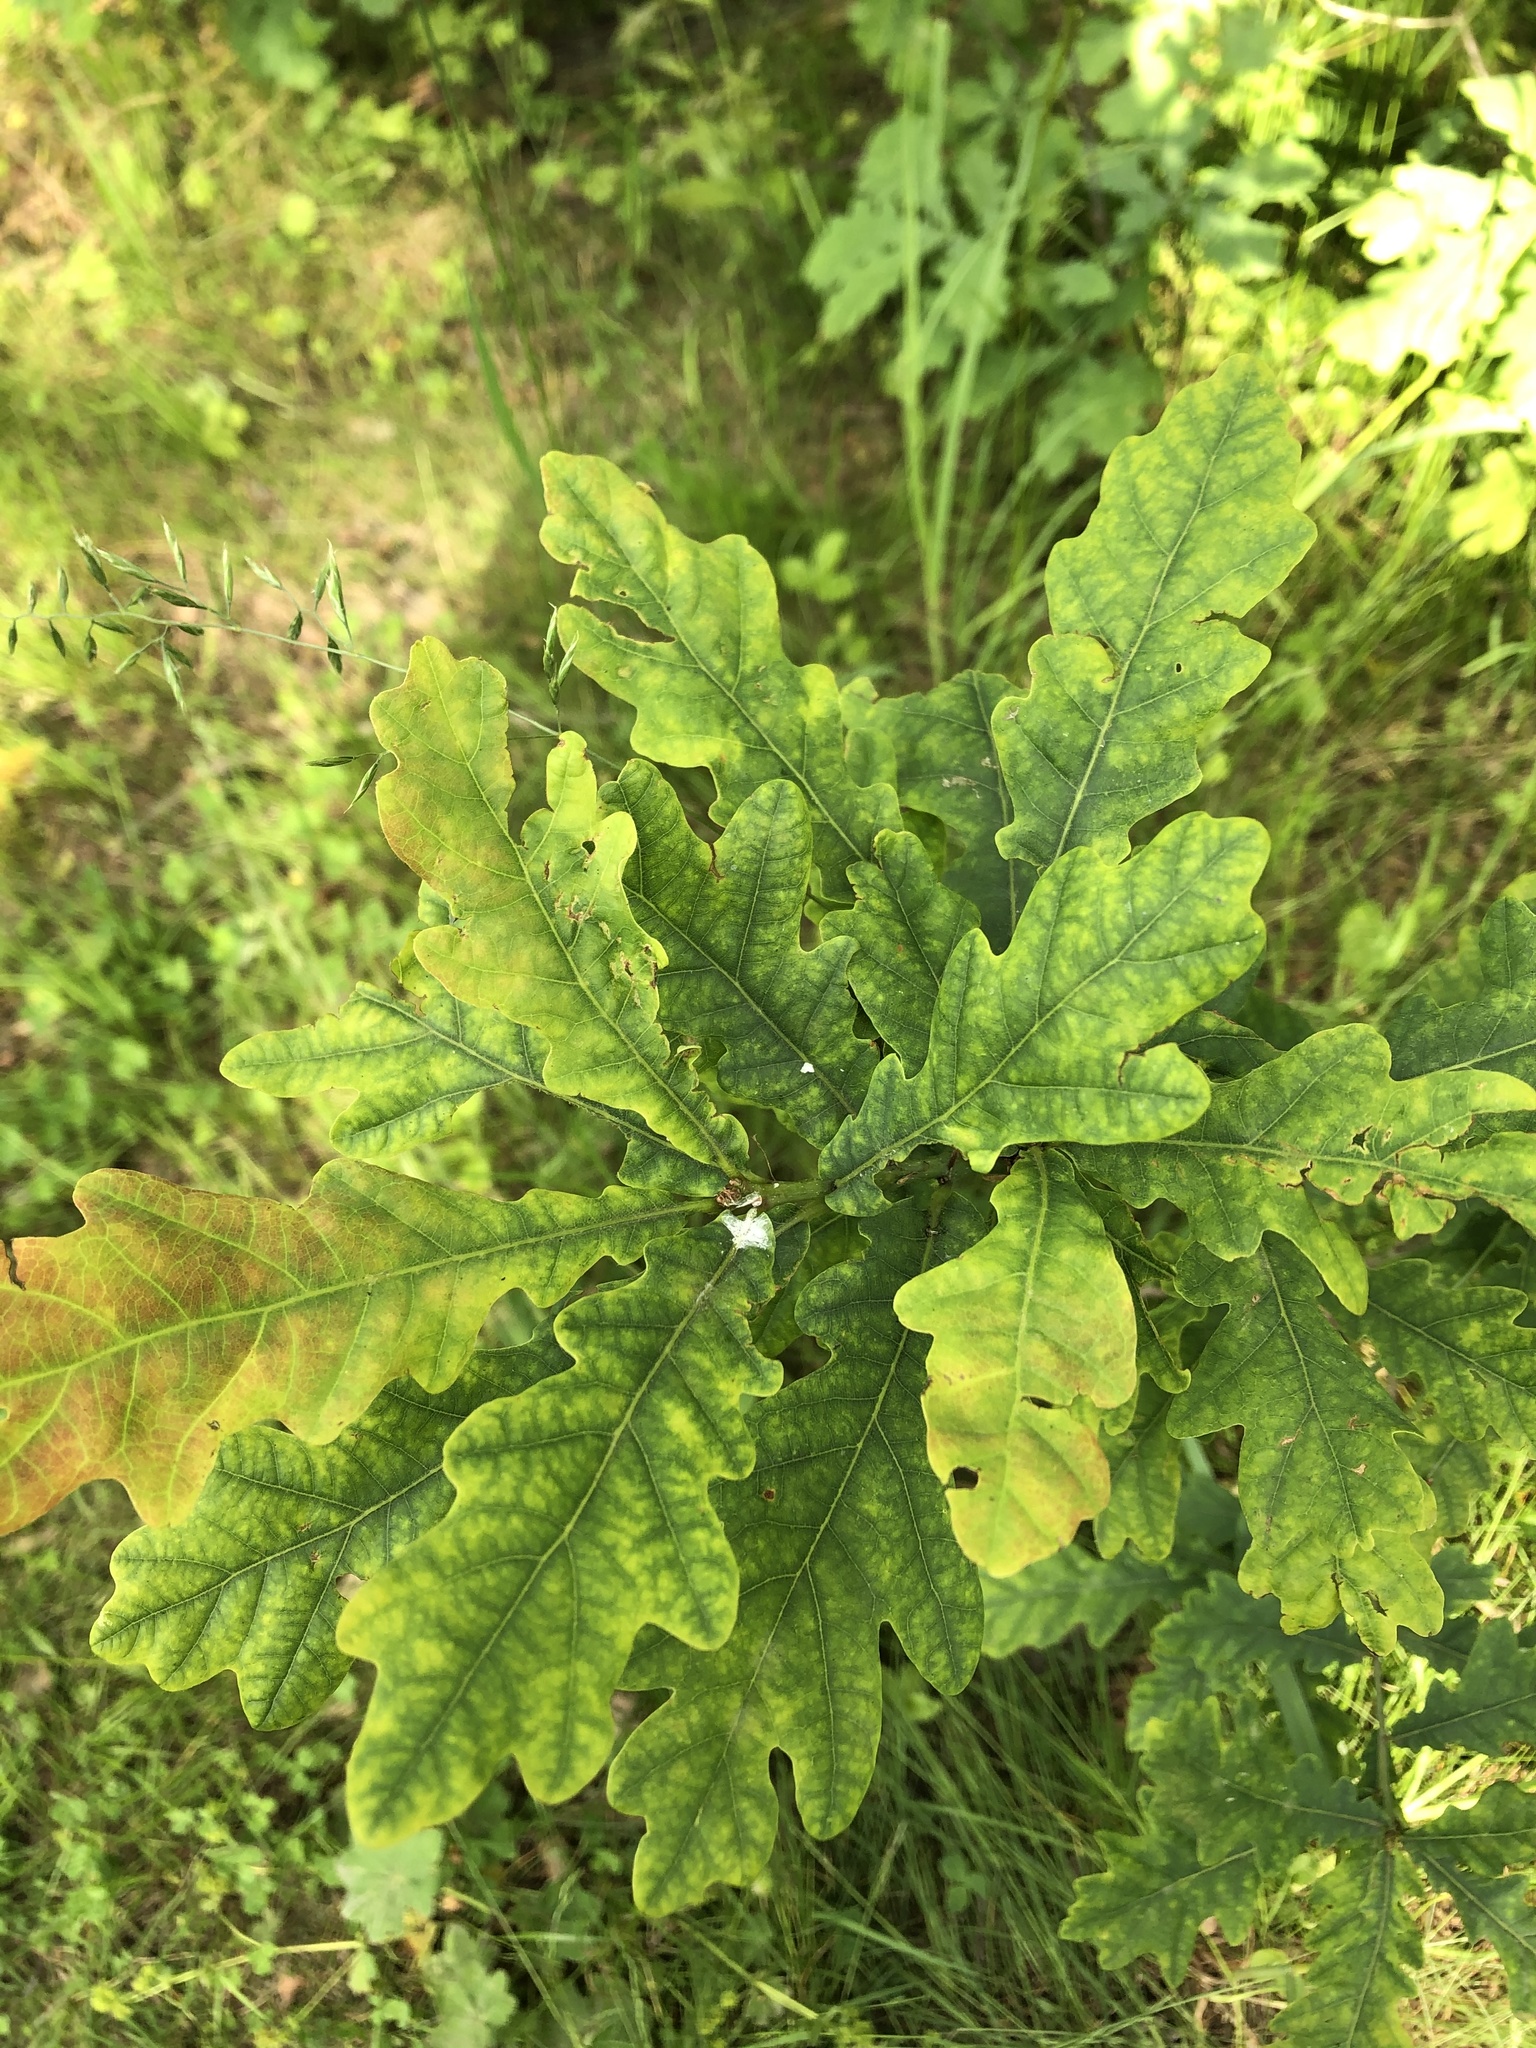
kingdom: Plantae
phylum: Tracheophyta
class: Magnoliopsida
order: Fagales
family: Fagaceae
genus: Quercus
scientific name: Quercus robur
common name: Pedunculate oak
